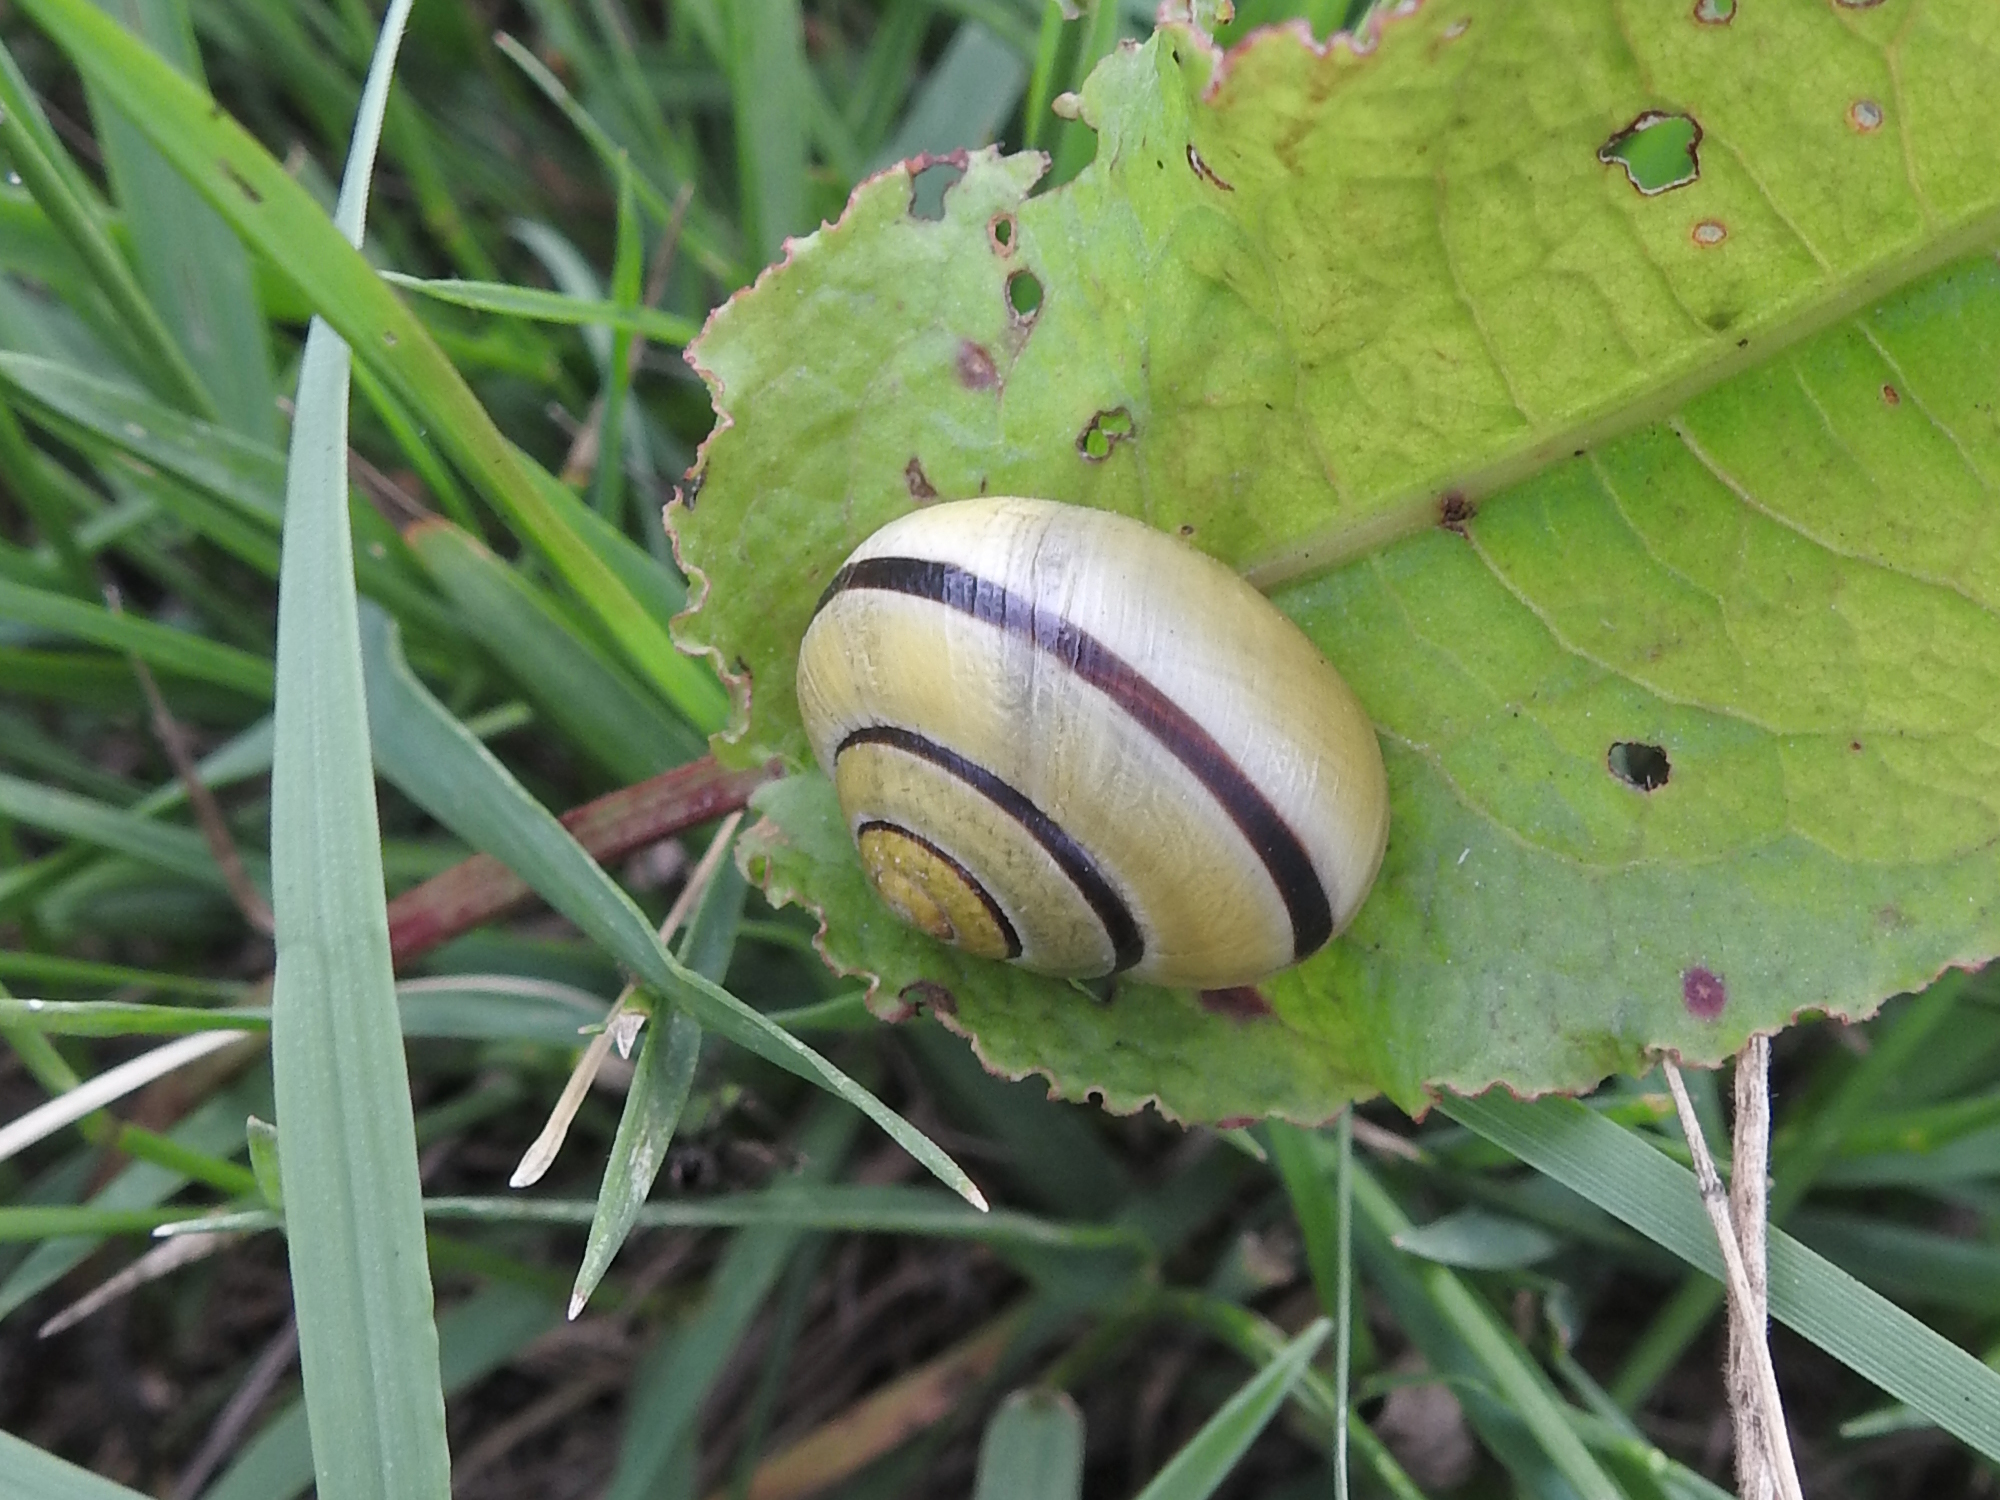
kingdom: Animalia
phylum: Mollusca
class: Gastropoda
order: Stylommatophora
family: Helicidae
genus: Cepaea
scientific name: Cepaea
